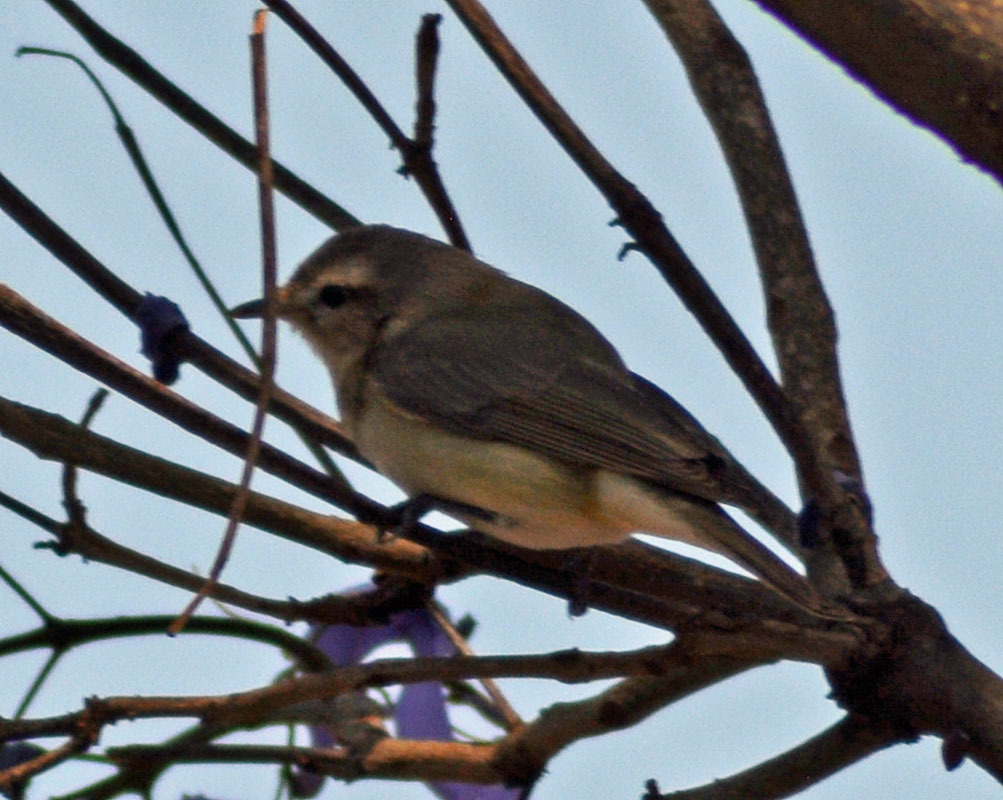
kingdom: Animalia
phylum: Chordata
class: Aves
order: Passeriformes
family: Vireonidae
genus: Vireo
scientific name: Vireo gilvus
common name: Warbling vireo
